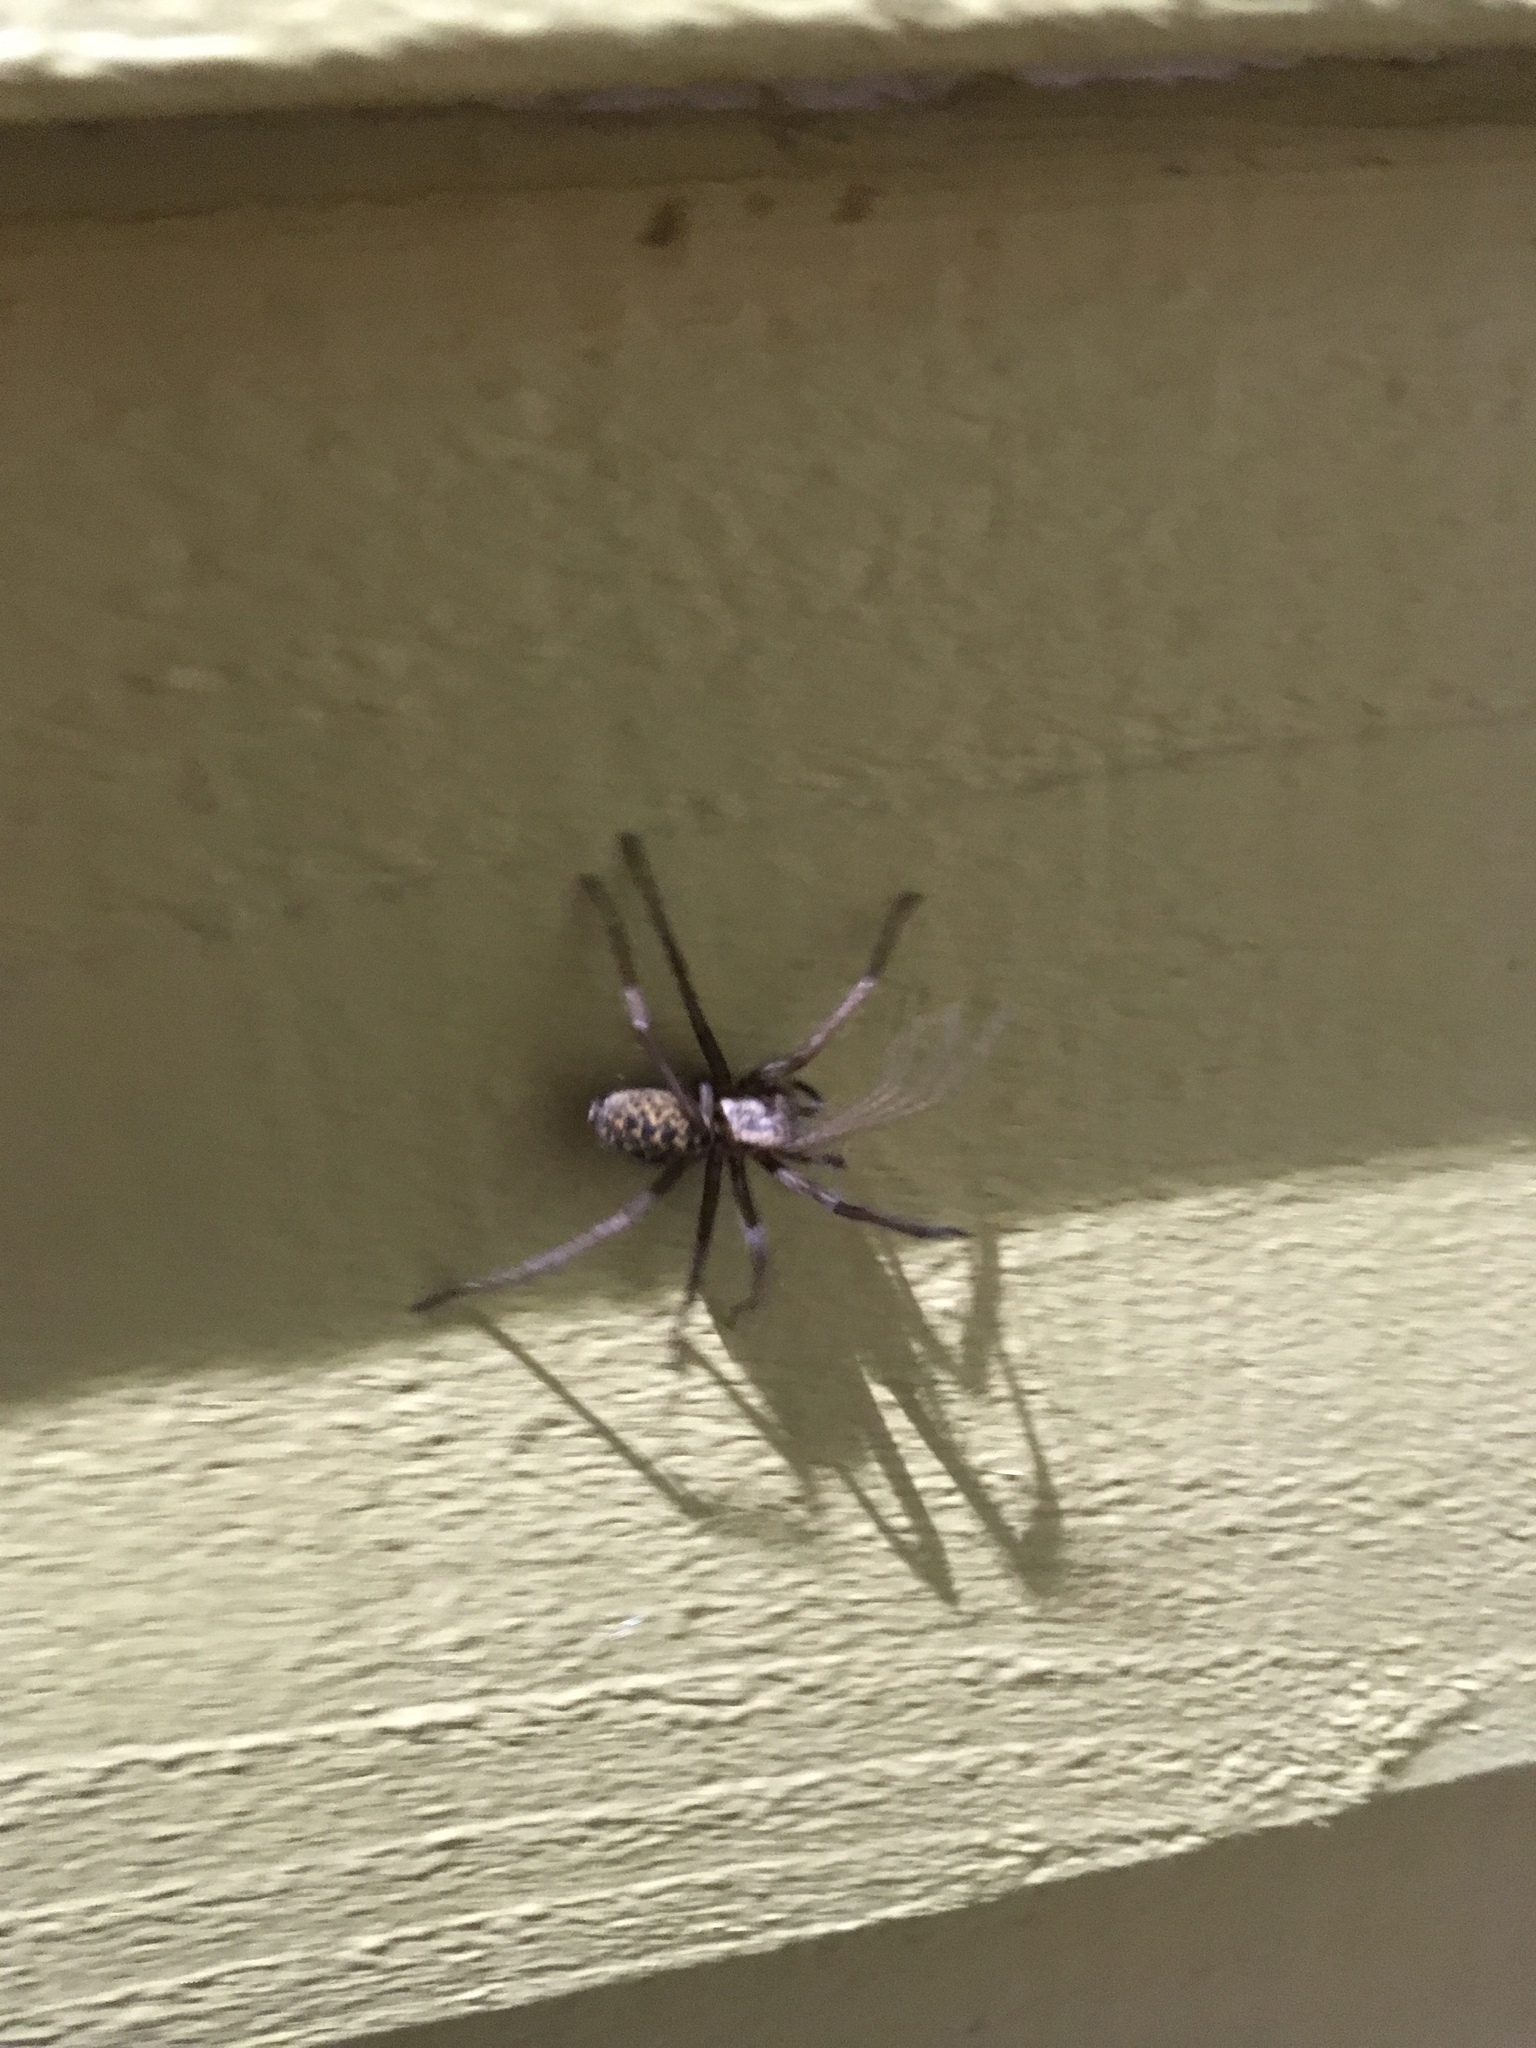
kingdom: Animalia
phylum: Arthropoda
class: Arachnida
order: Araneae
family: Agelenidae
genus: Eratigena
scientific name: Eratigena duellica
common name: Giant house spider
